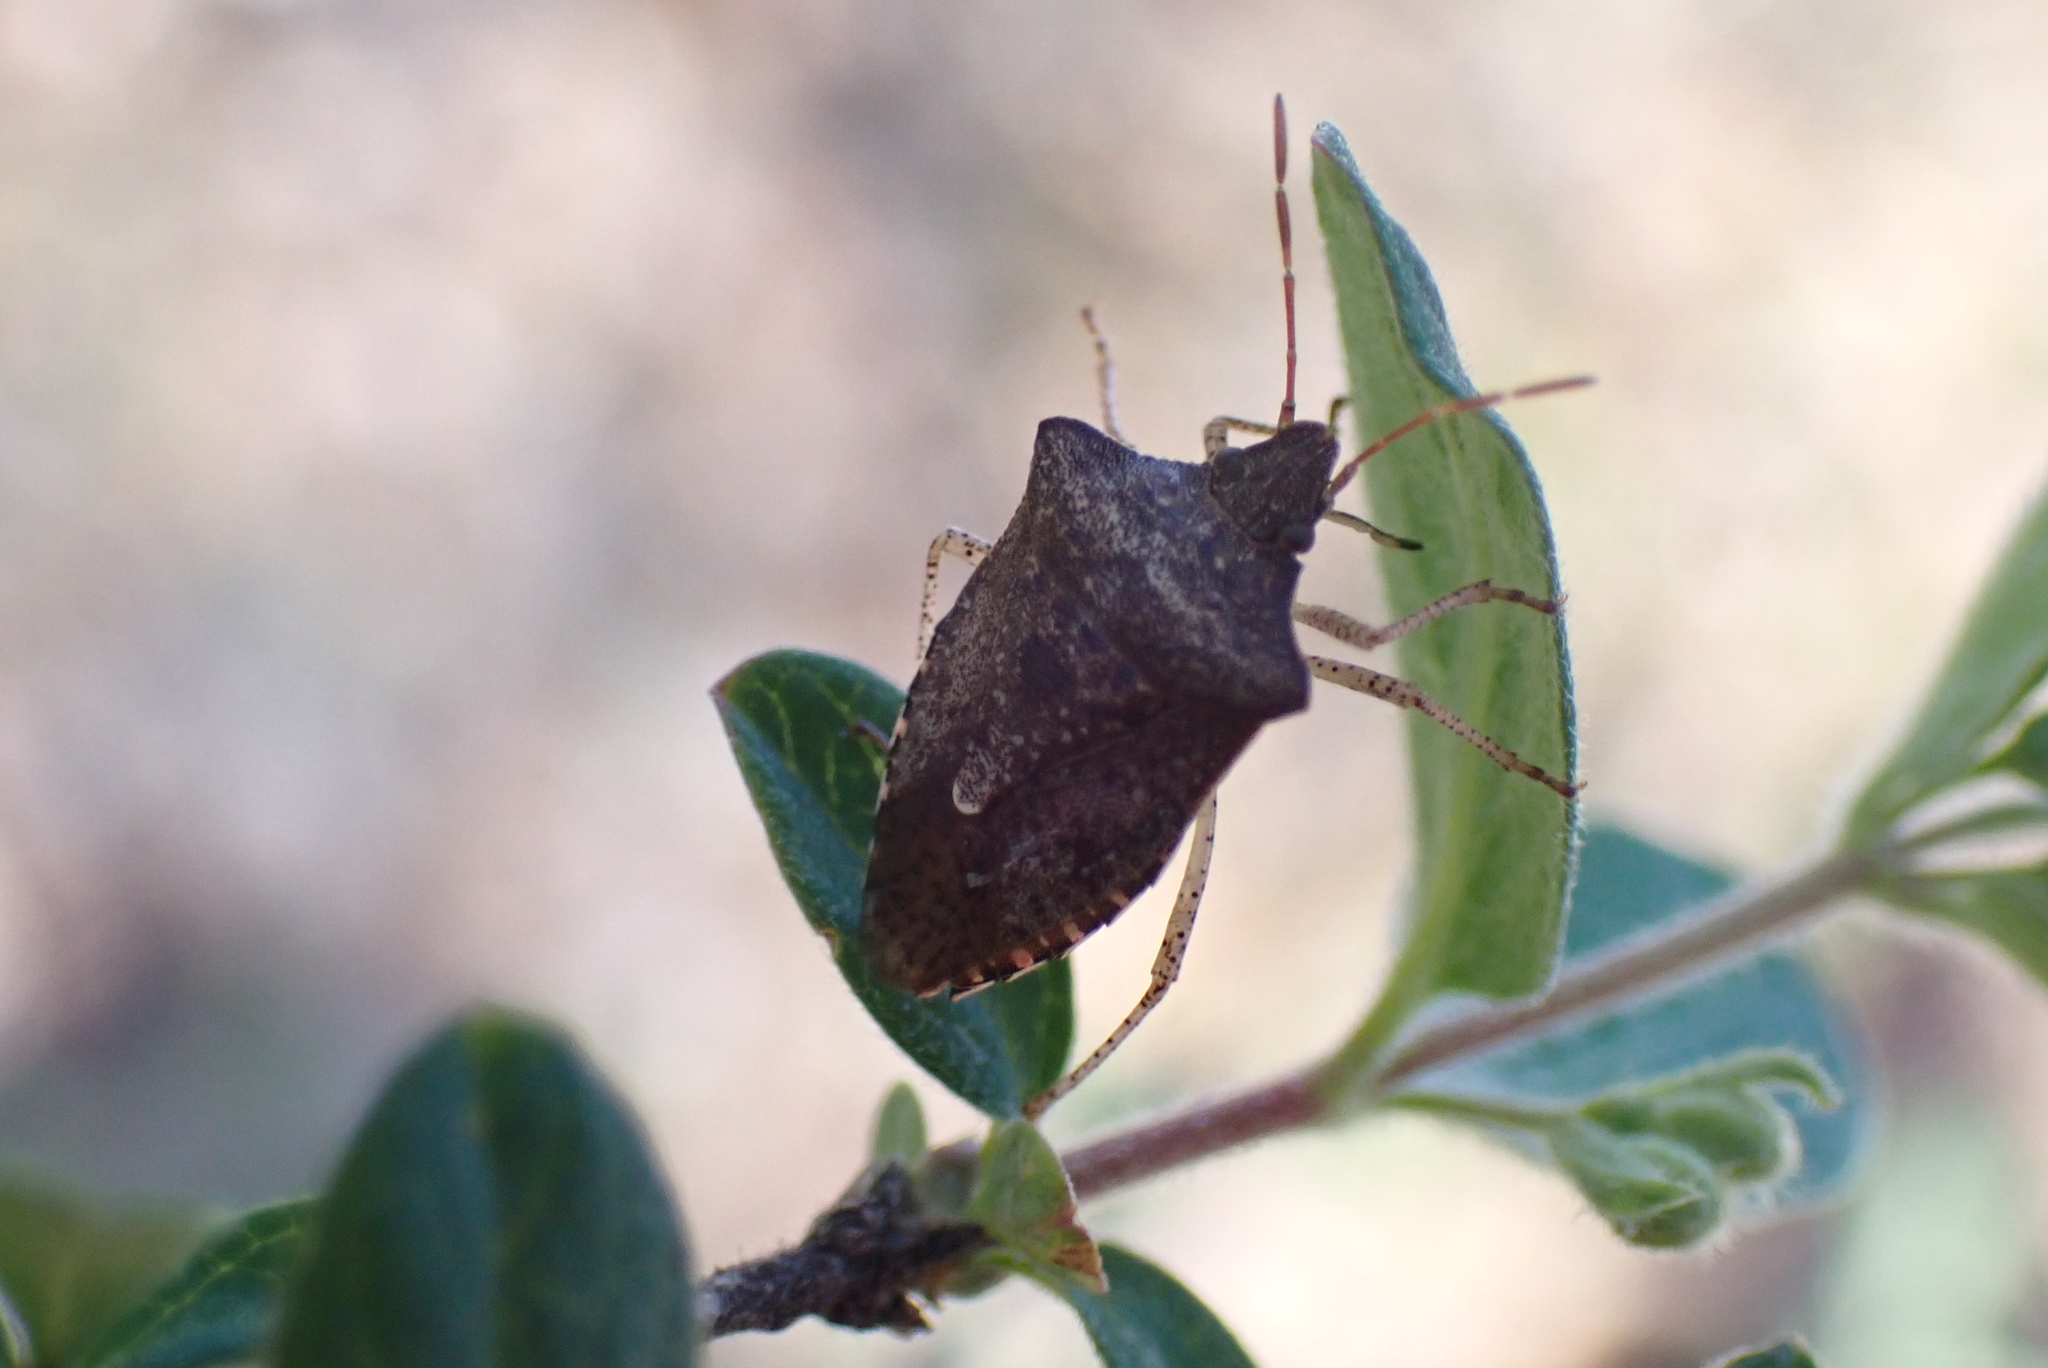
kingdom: Animalia
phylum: Arthropoda
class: Insecta
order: Hemiptera
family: Pentatomidae
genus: Euschistus
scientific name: Euschistus
